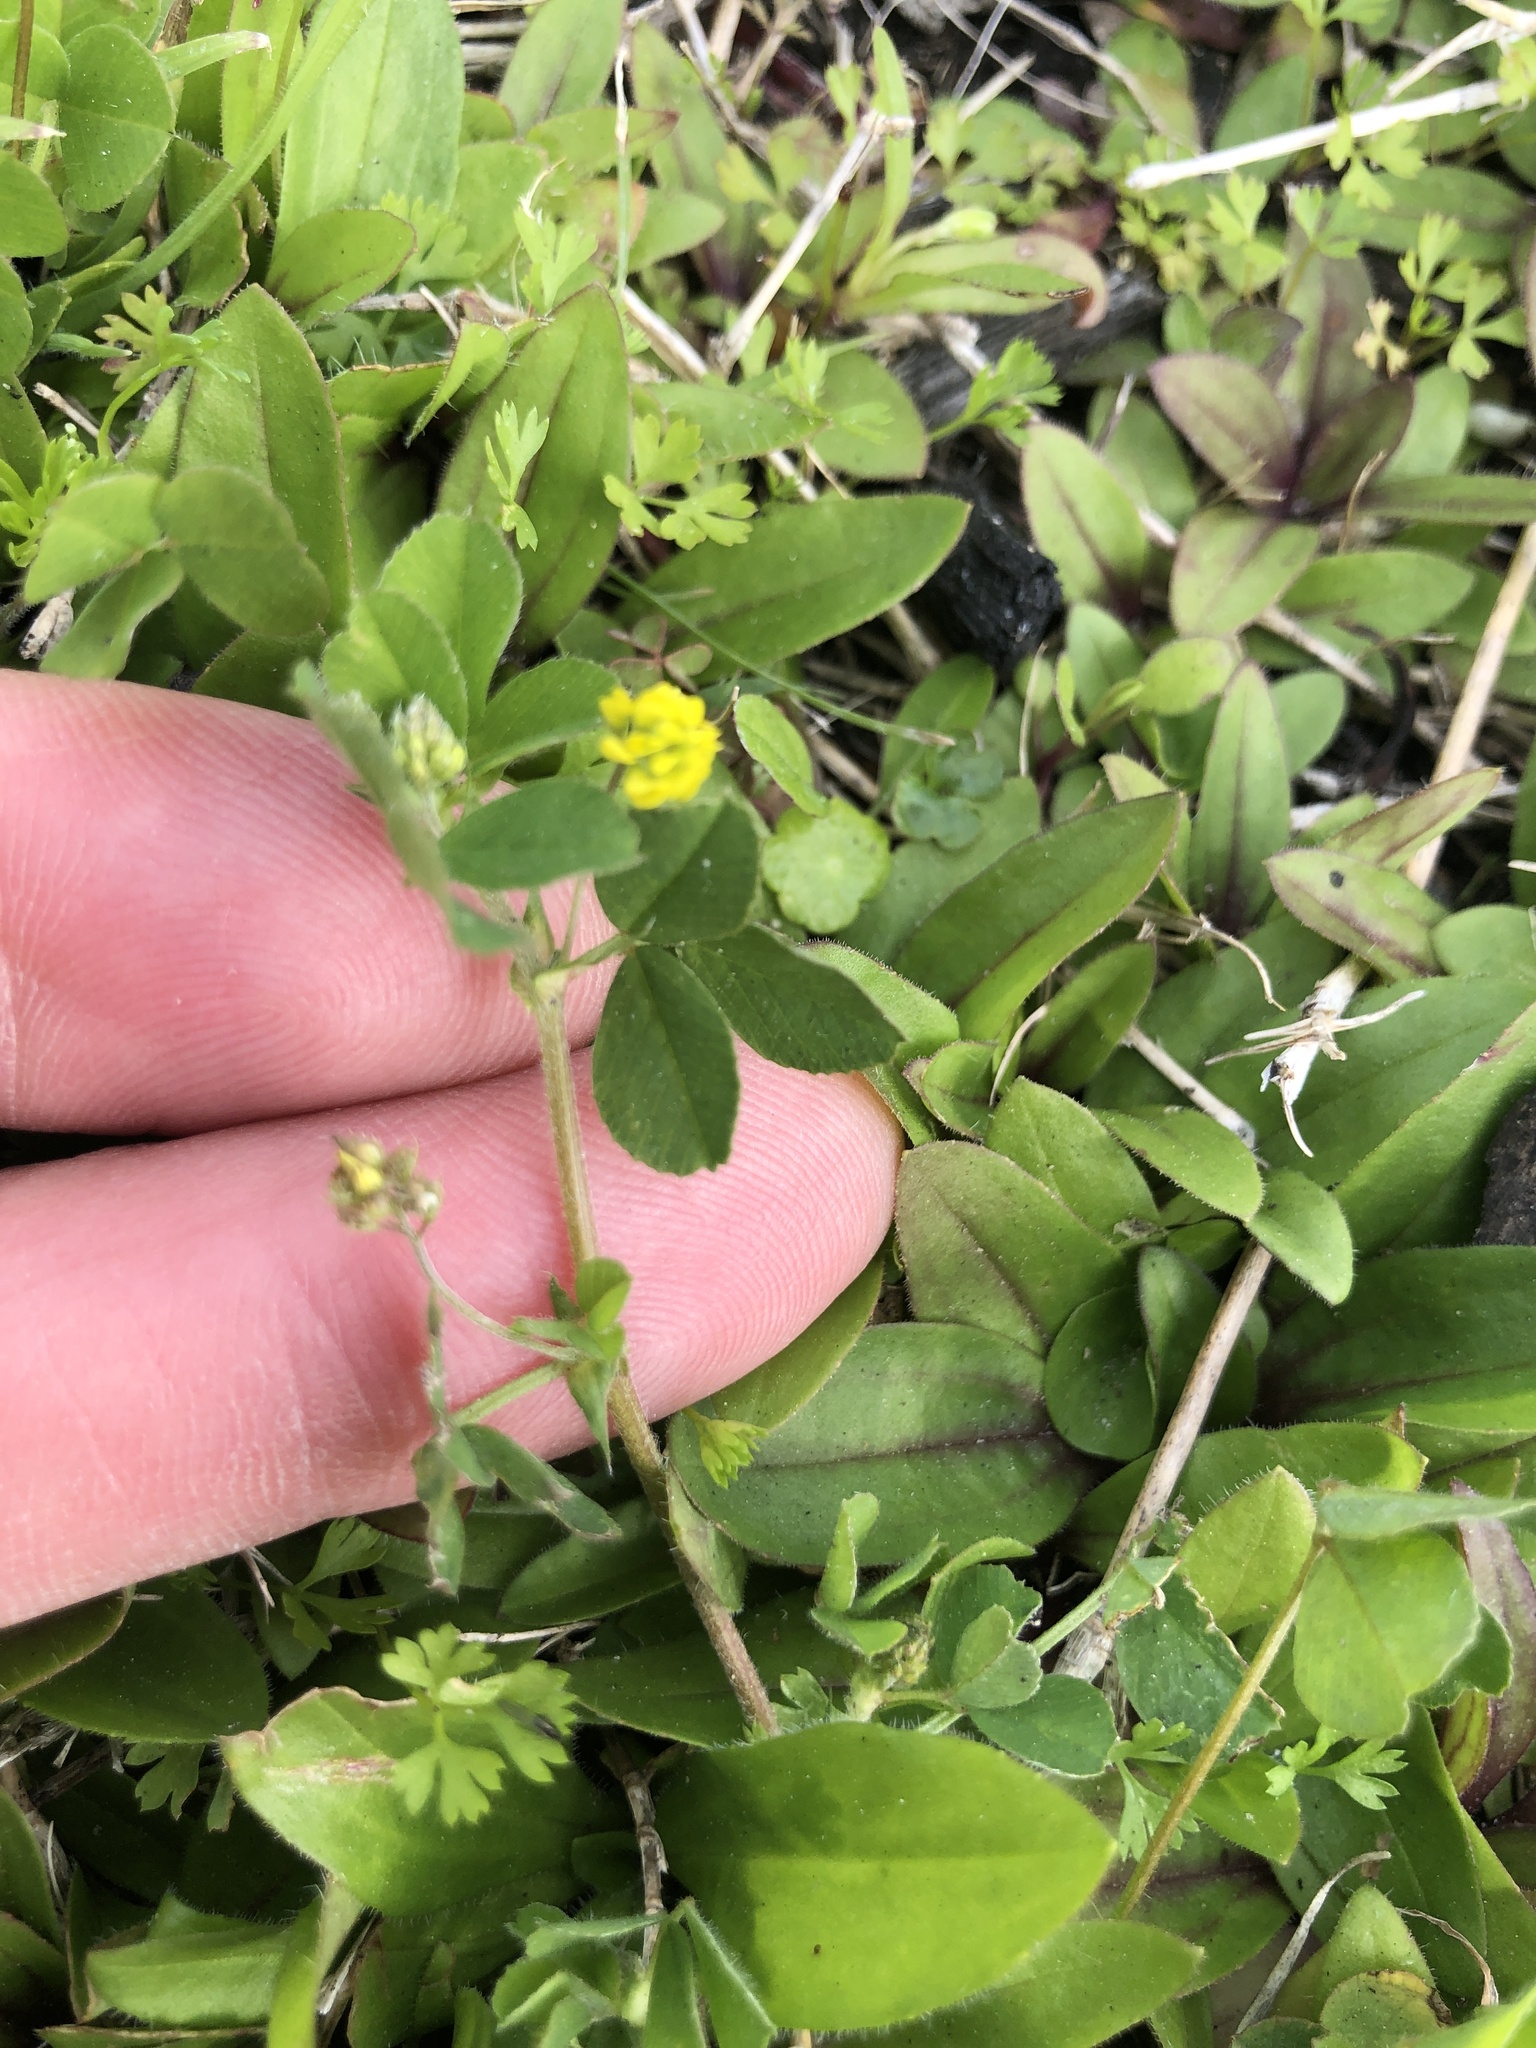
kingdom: Plantae
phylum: Tracheophyta
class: Magnoliopsida
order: Fabales
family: Fabaceae
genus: Medicago
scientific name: Medicago lupulina
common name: Black medick
